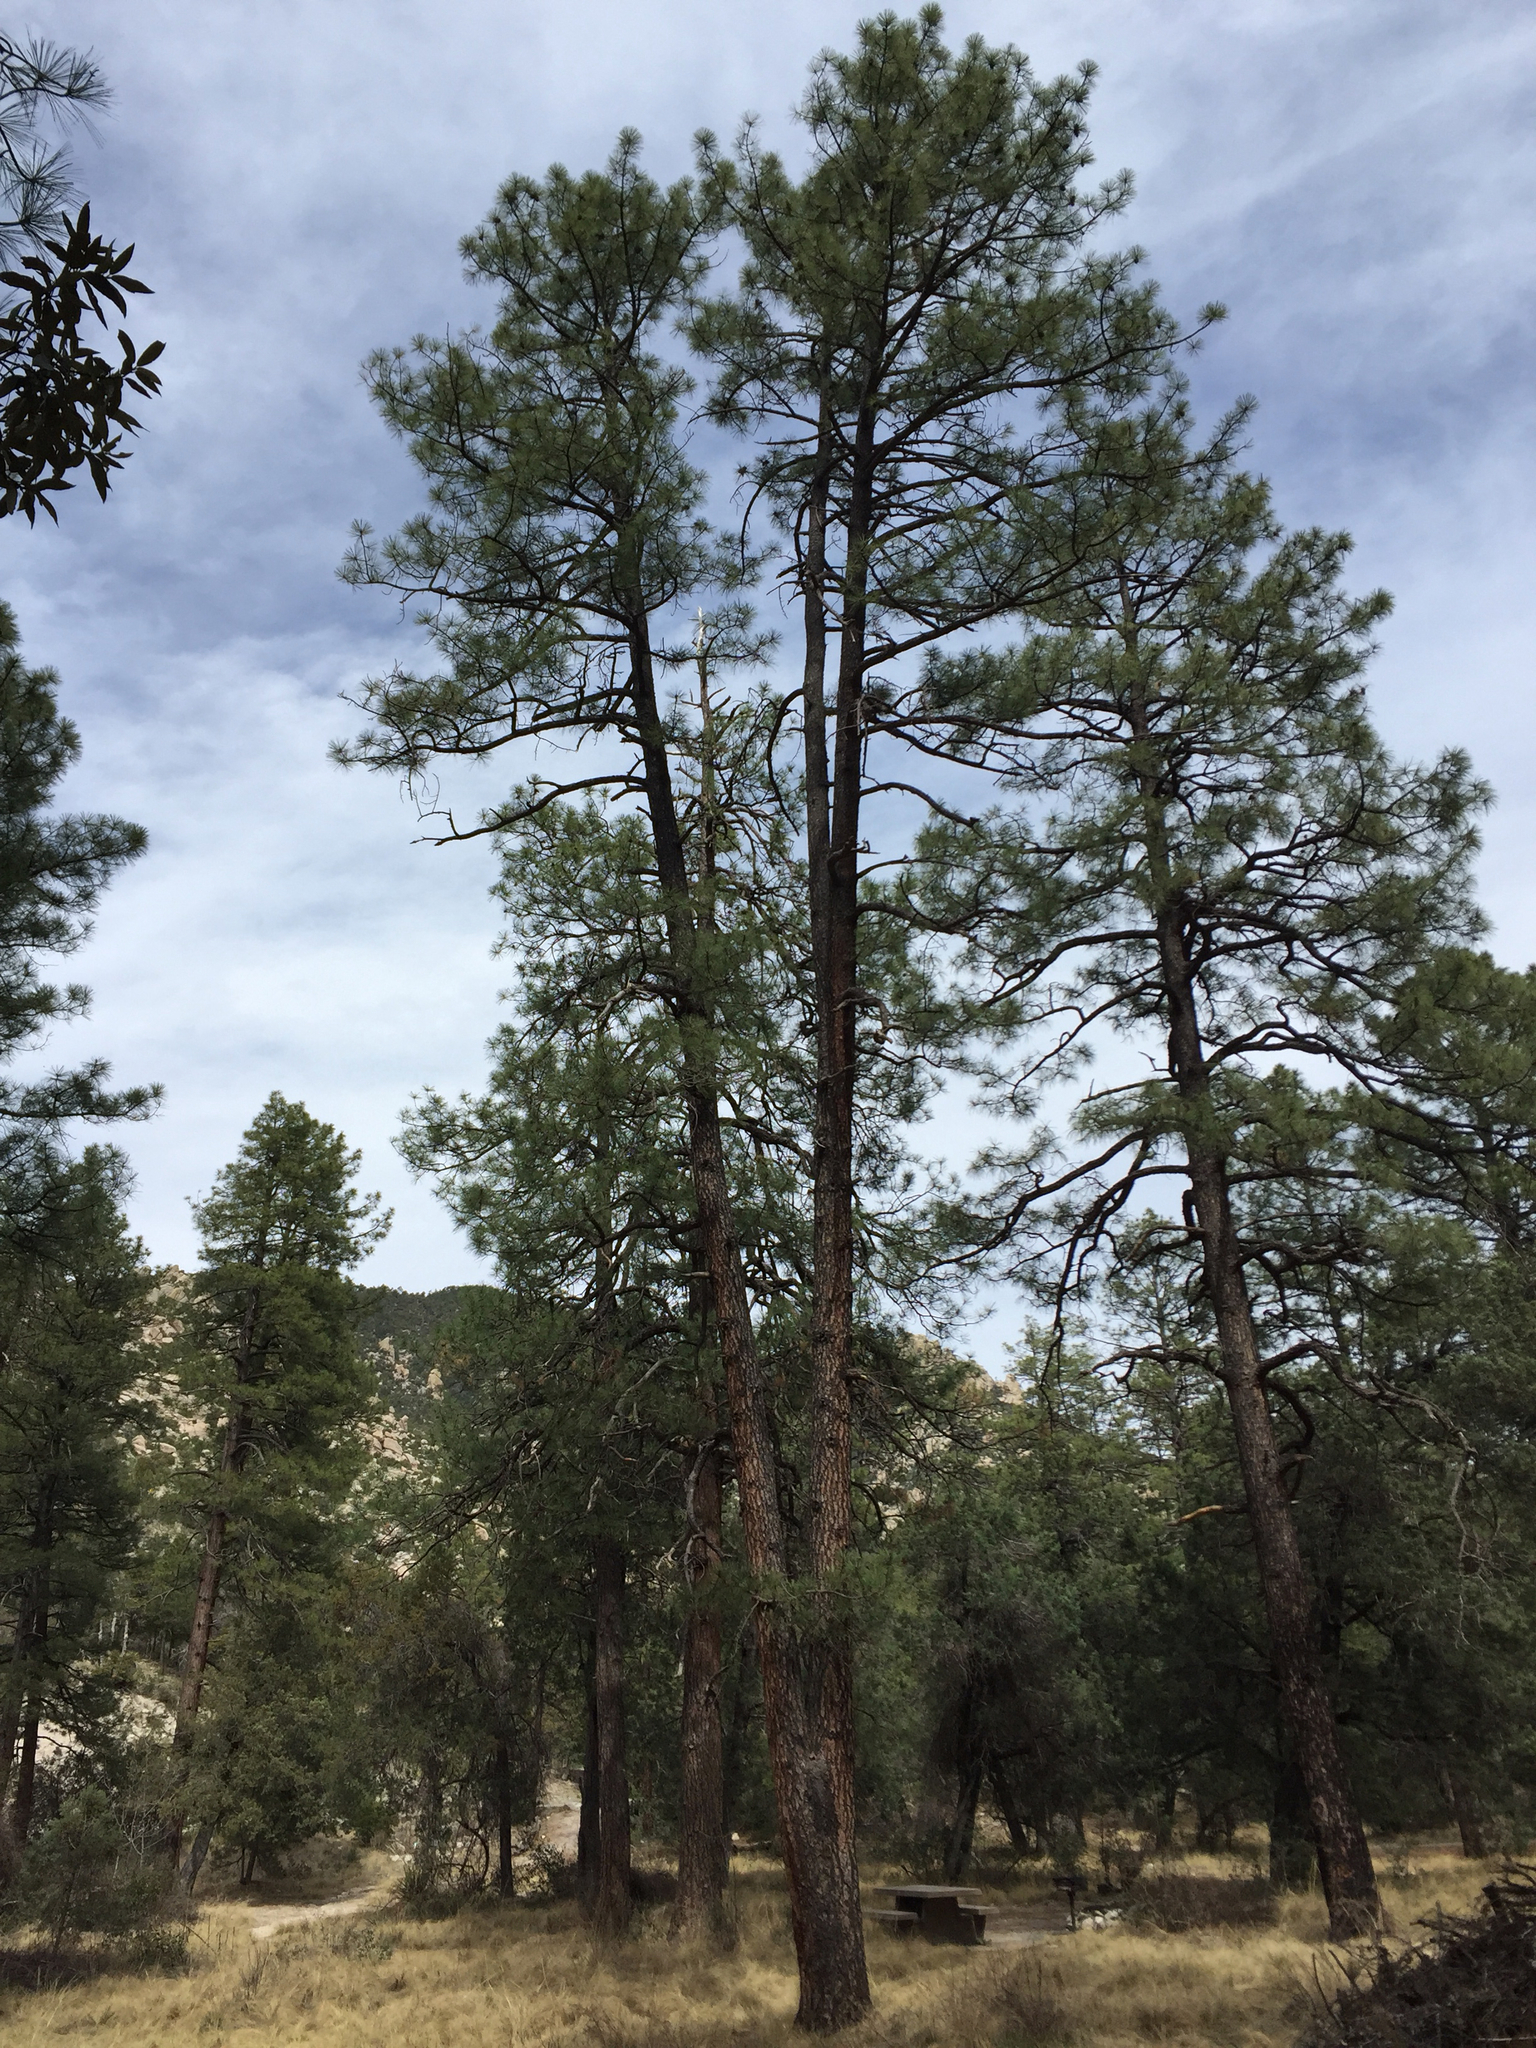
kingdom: Plantae
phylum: Tracheophyta
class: Pinopsida
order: Pinales
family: Pinaceae
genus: Pinus
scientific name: Pinus ponderosa
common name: Western yellow-pine
